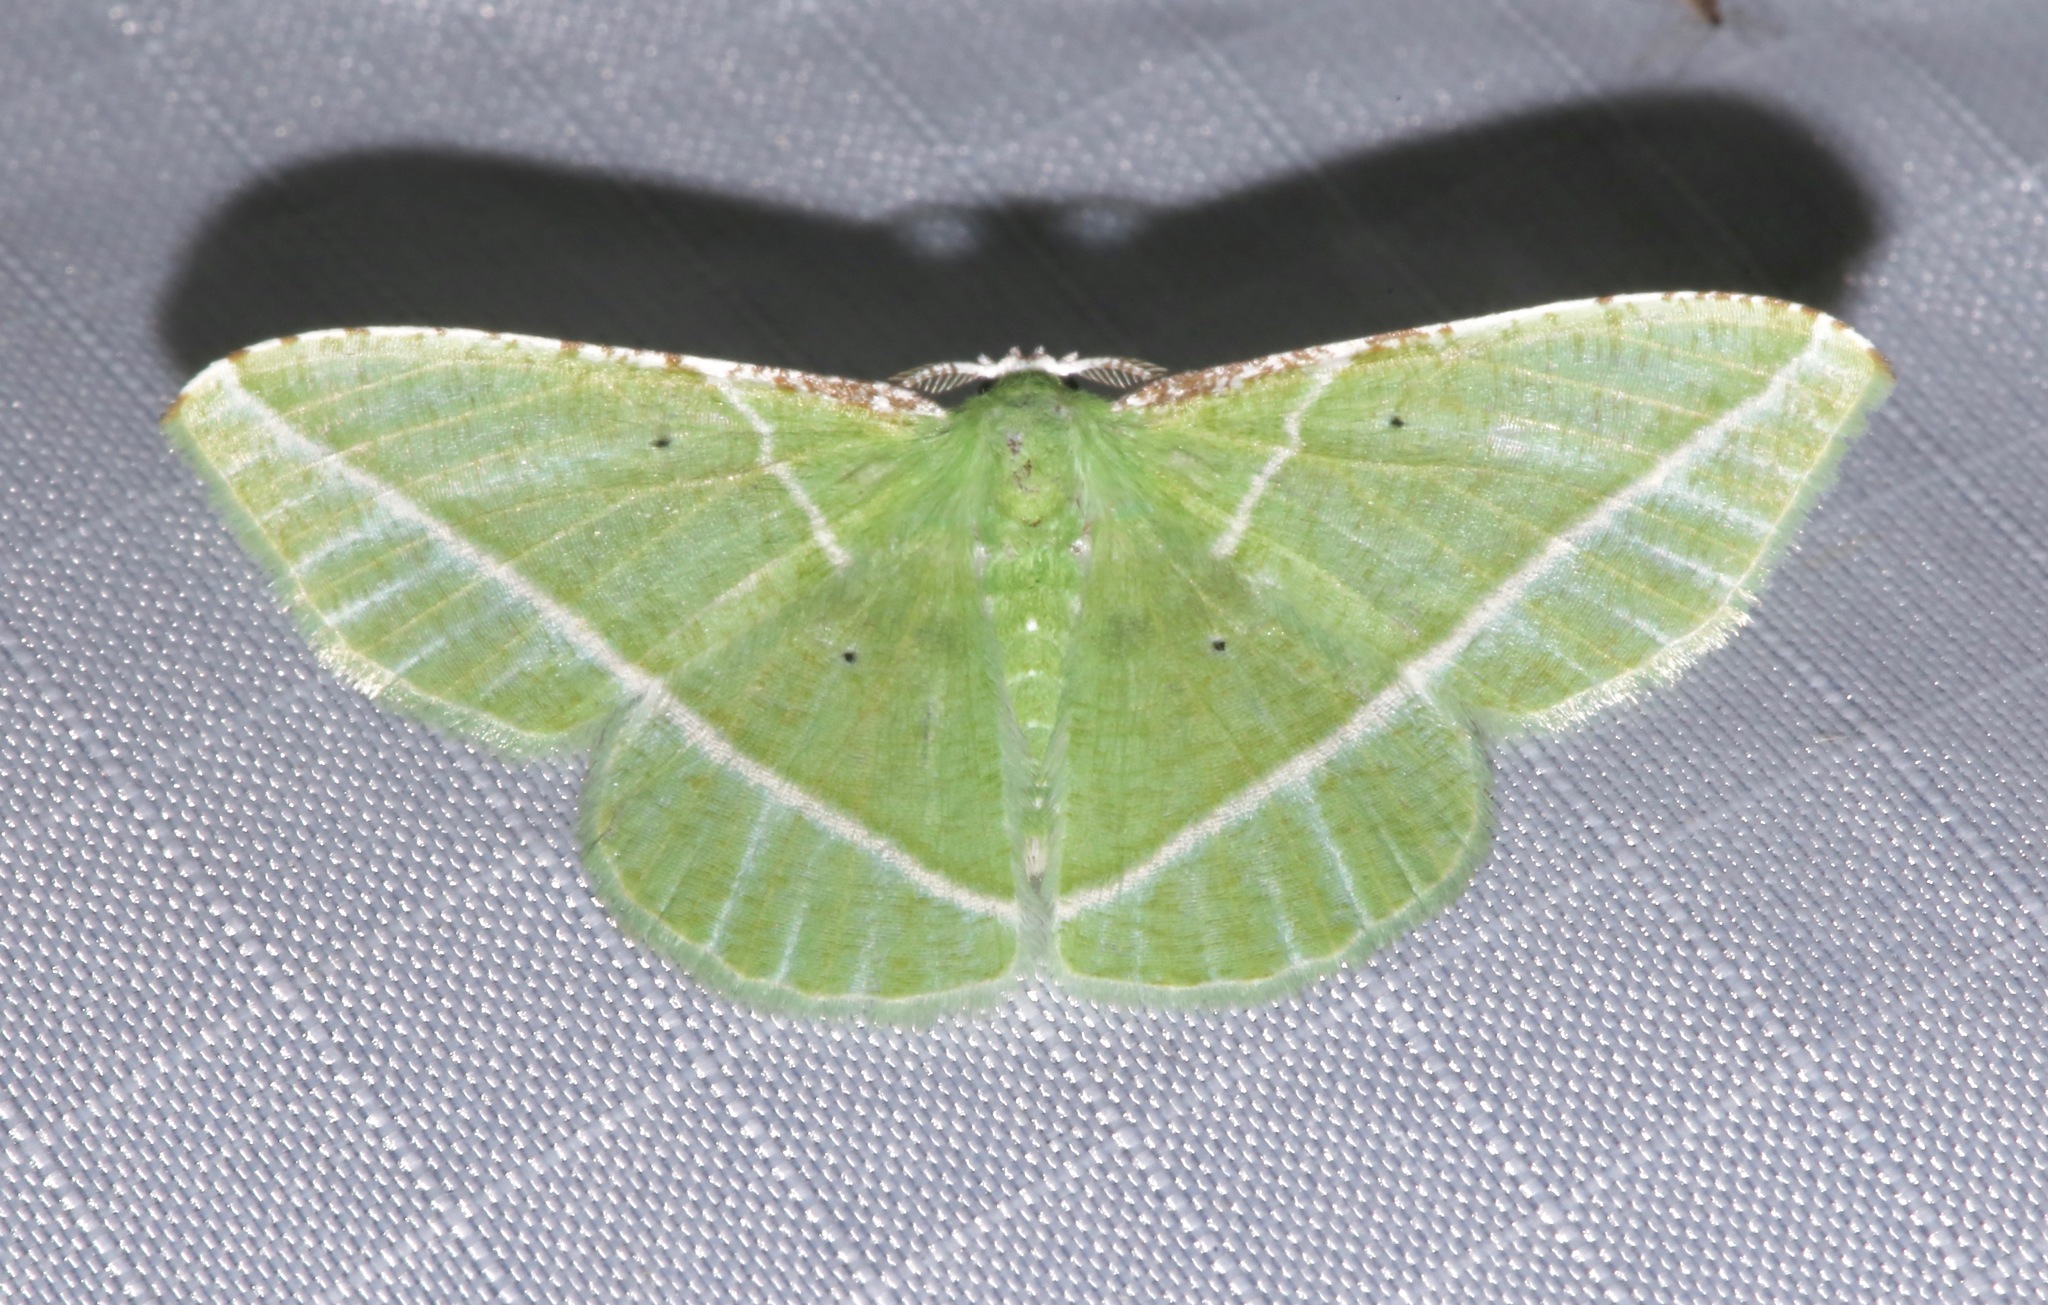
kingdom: Animalia
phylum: Arthropoda
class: Insecta
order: Lepidoptera
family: Geometridae
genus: Dichorda
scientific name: Dichorda consequaria
